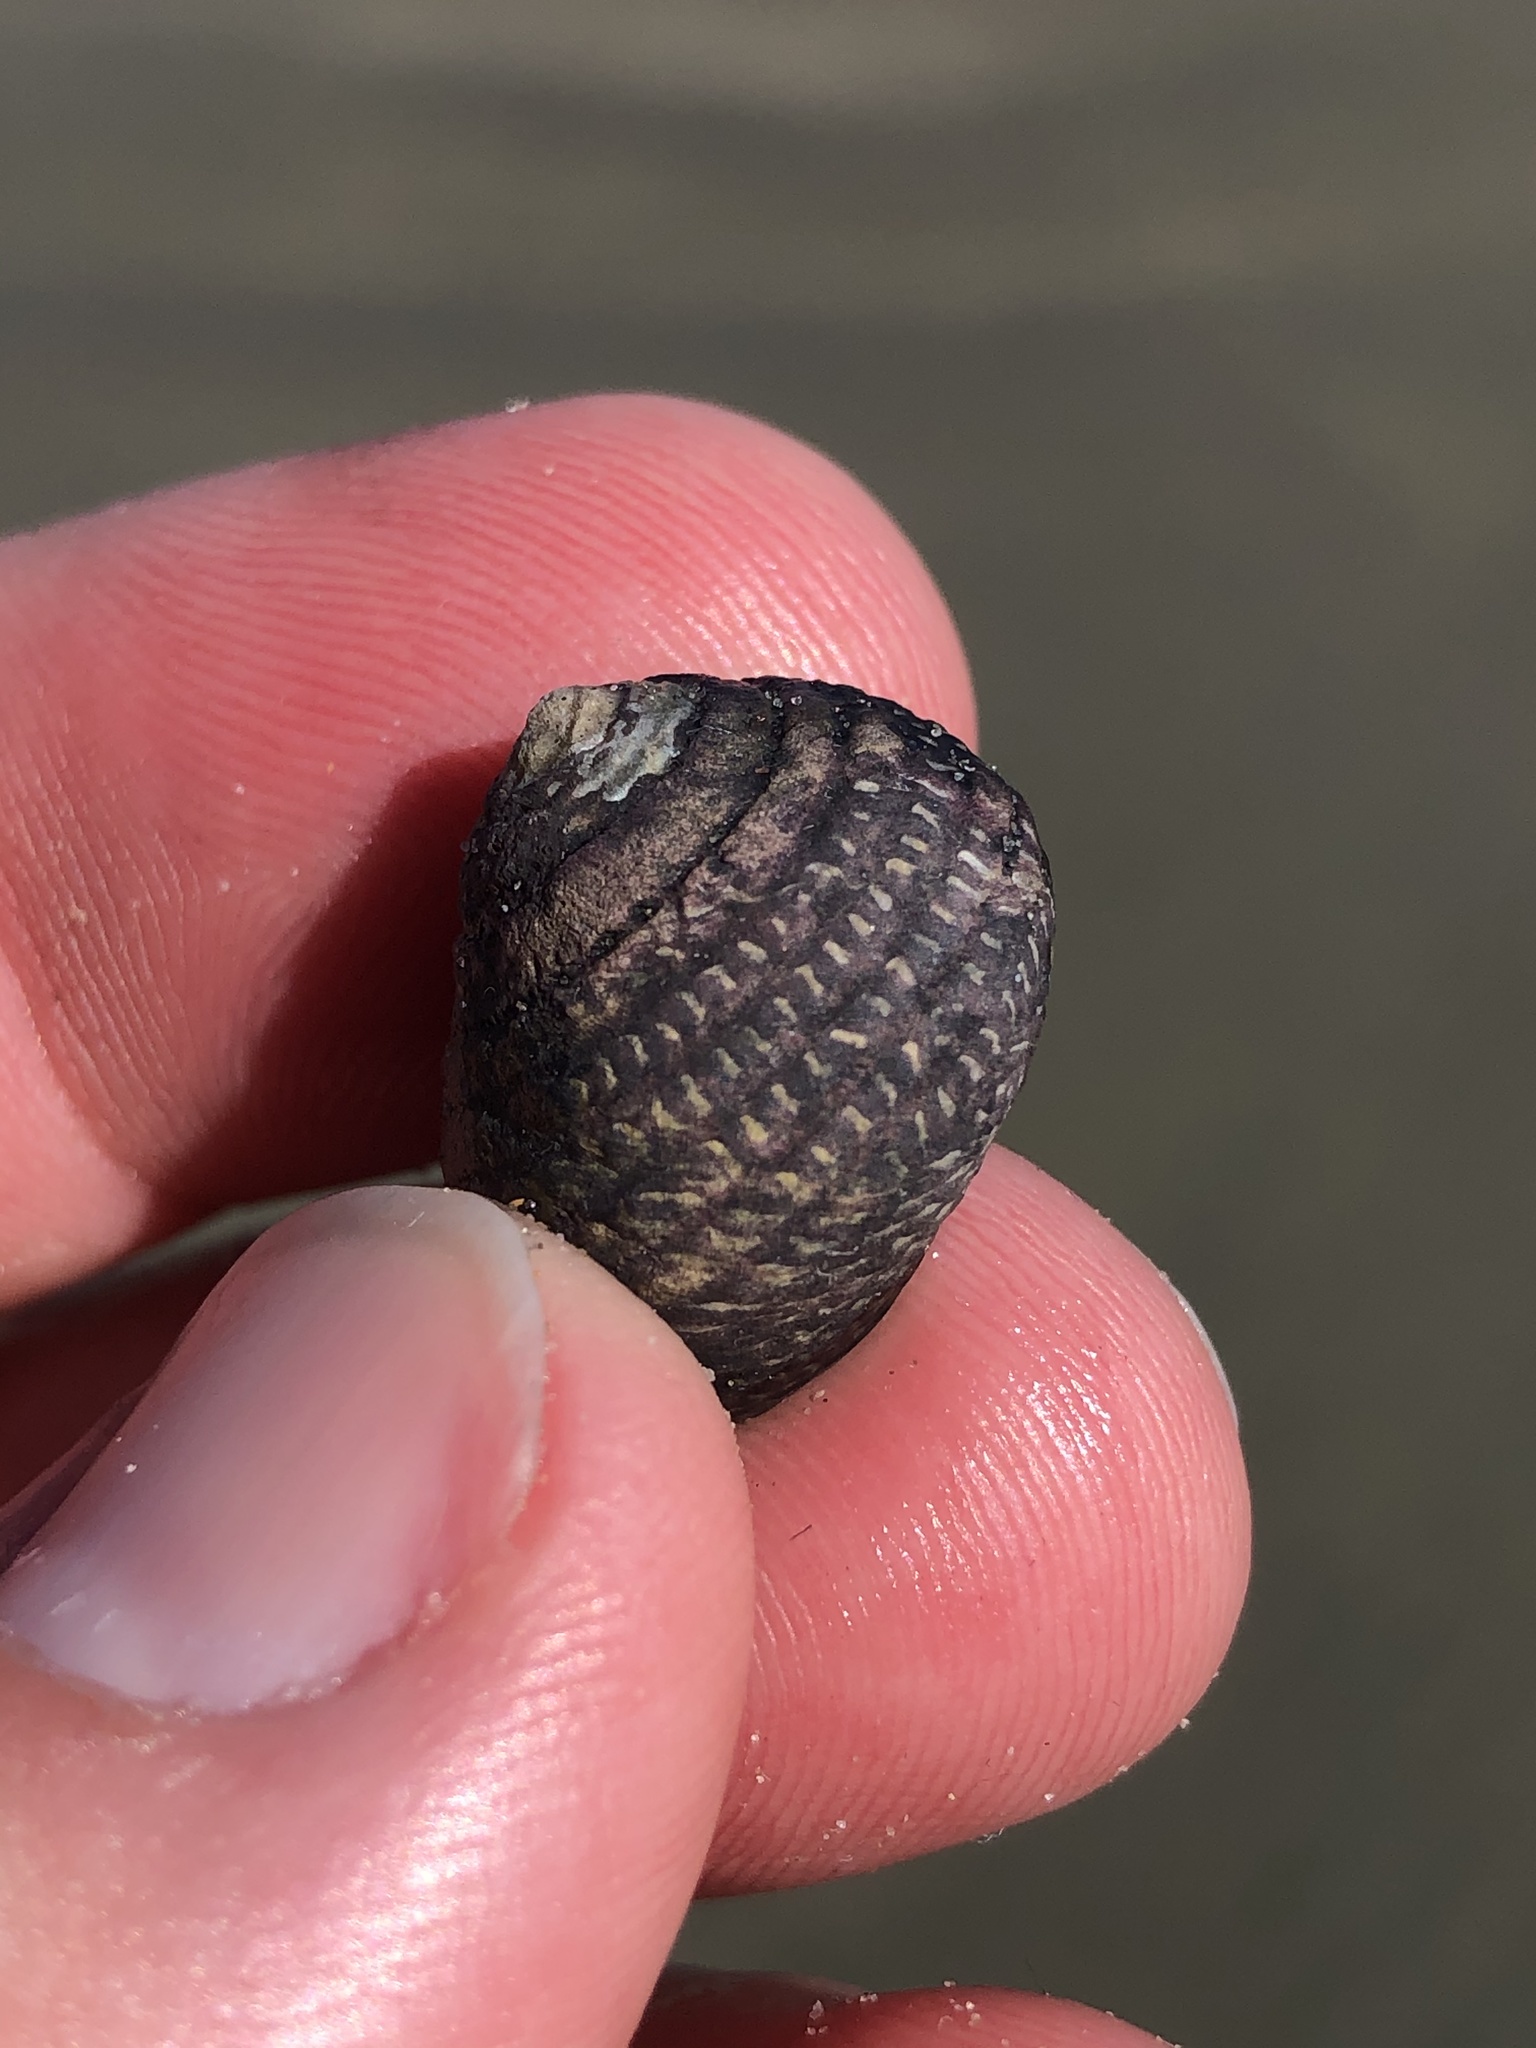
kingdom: Animalia
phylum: Mollusca
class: Gastropoda
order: Trochida
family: Trochidae
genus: Diloma
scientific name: Diloma aethiops
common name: Scorched monodont
